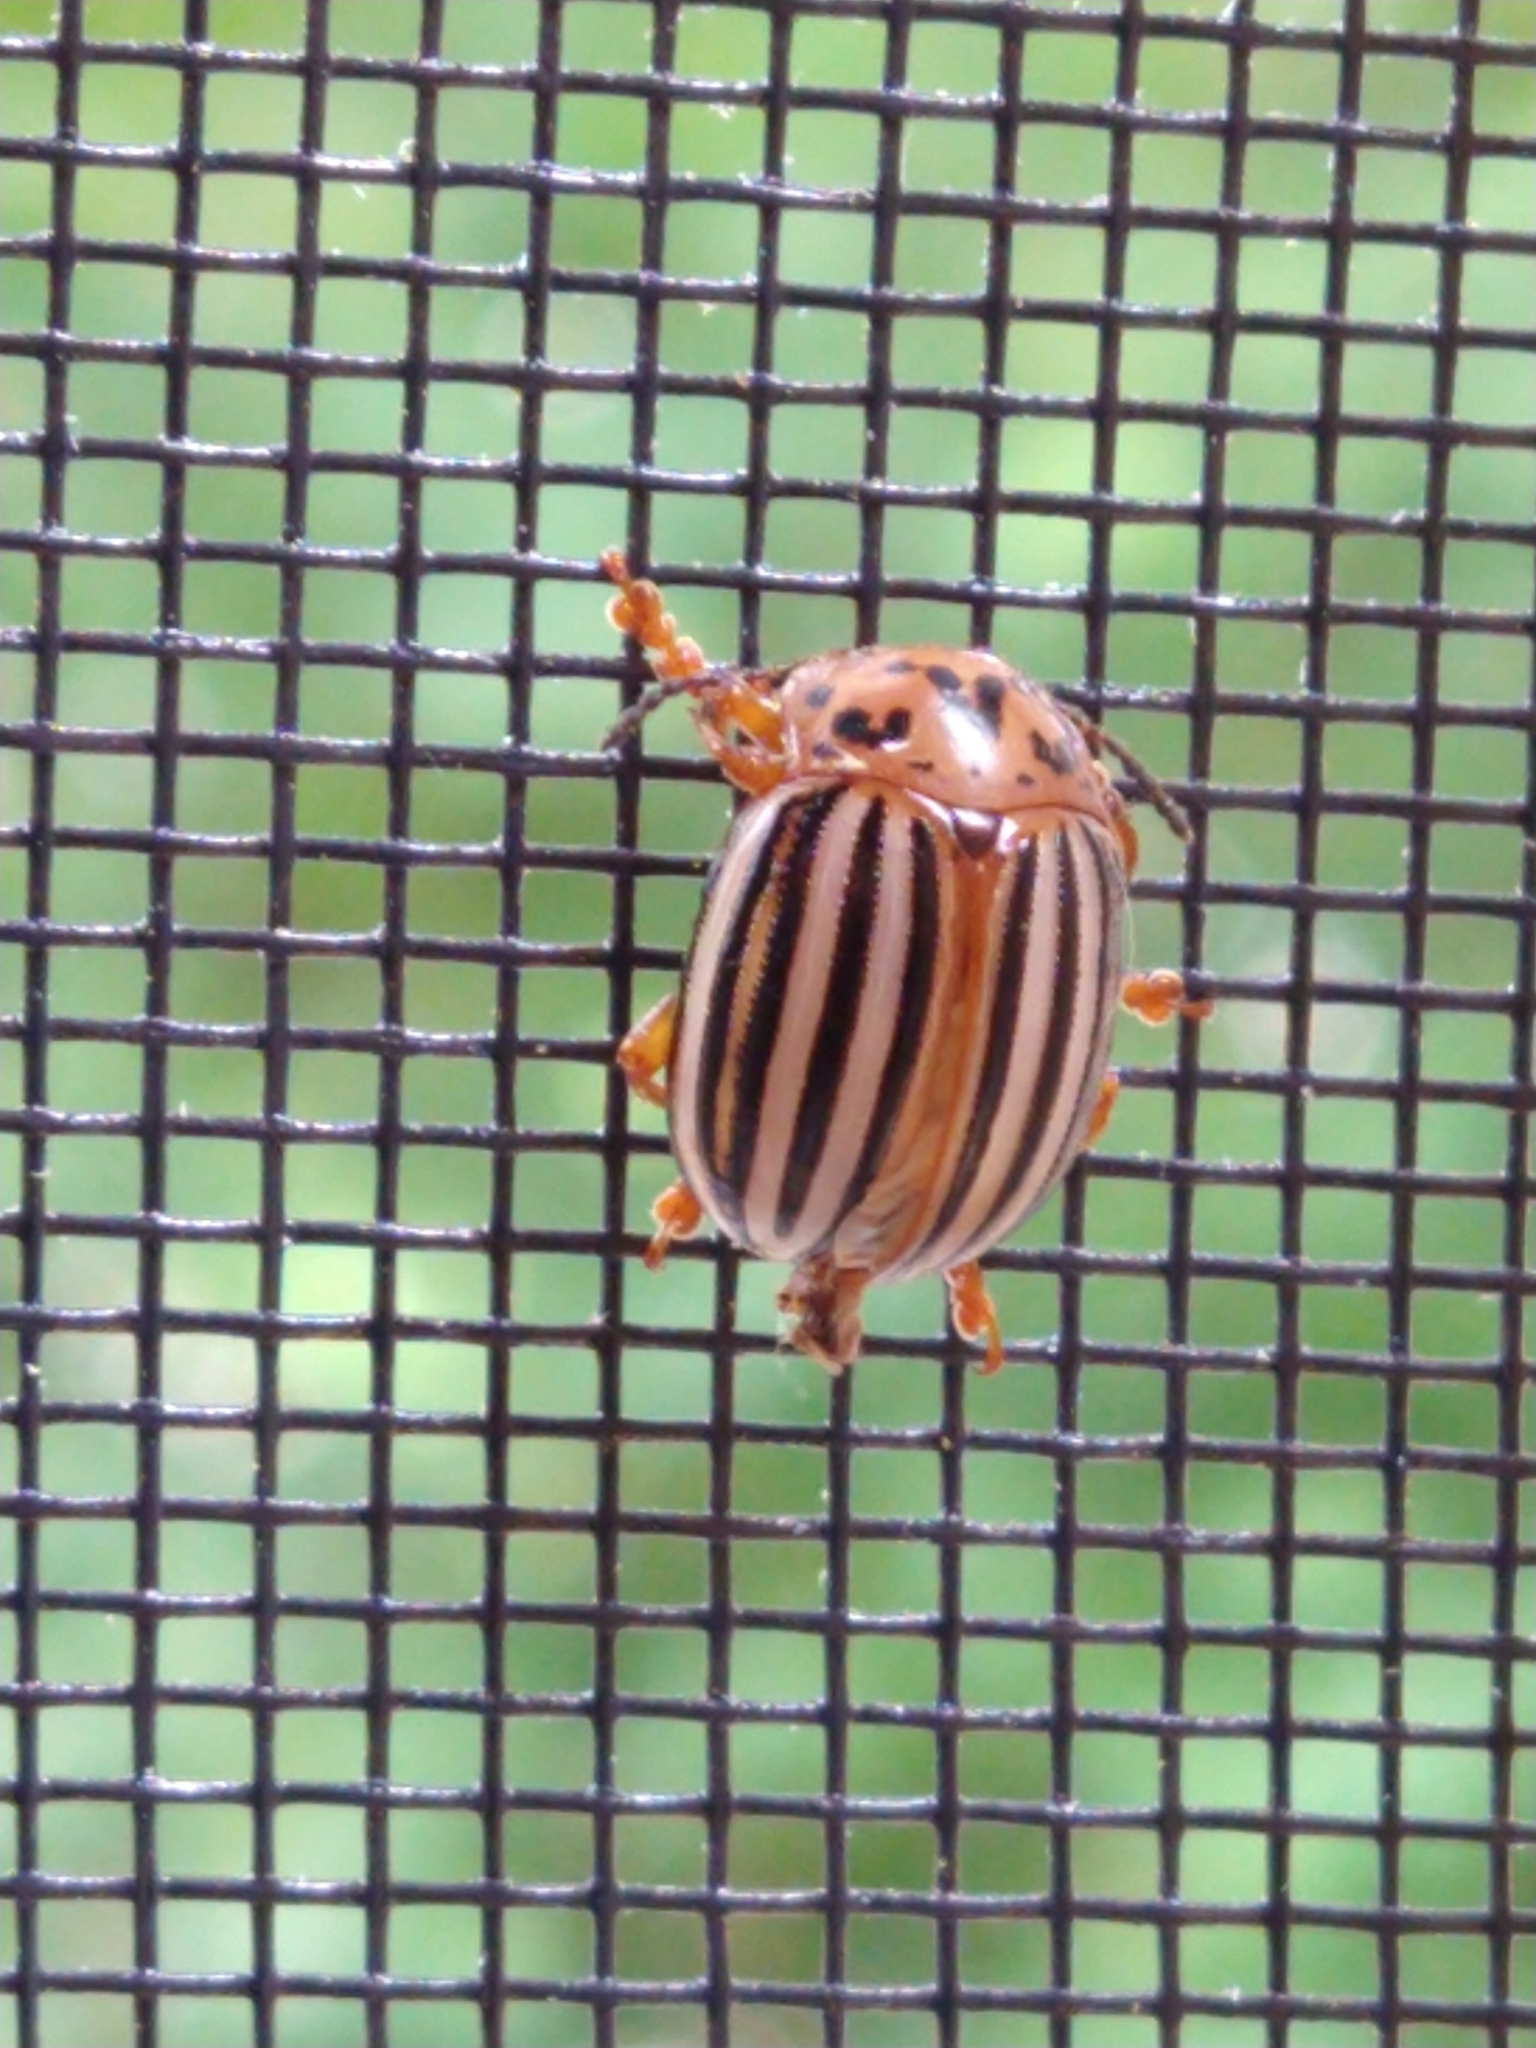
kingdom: Animalia
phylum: Arthropoda
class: Insecta
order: Coleoptera
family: Chrysomelidae
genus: Leptinotarsa
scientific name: Leptinotarsa juncta
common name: False potato beetle
